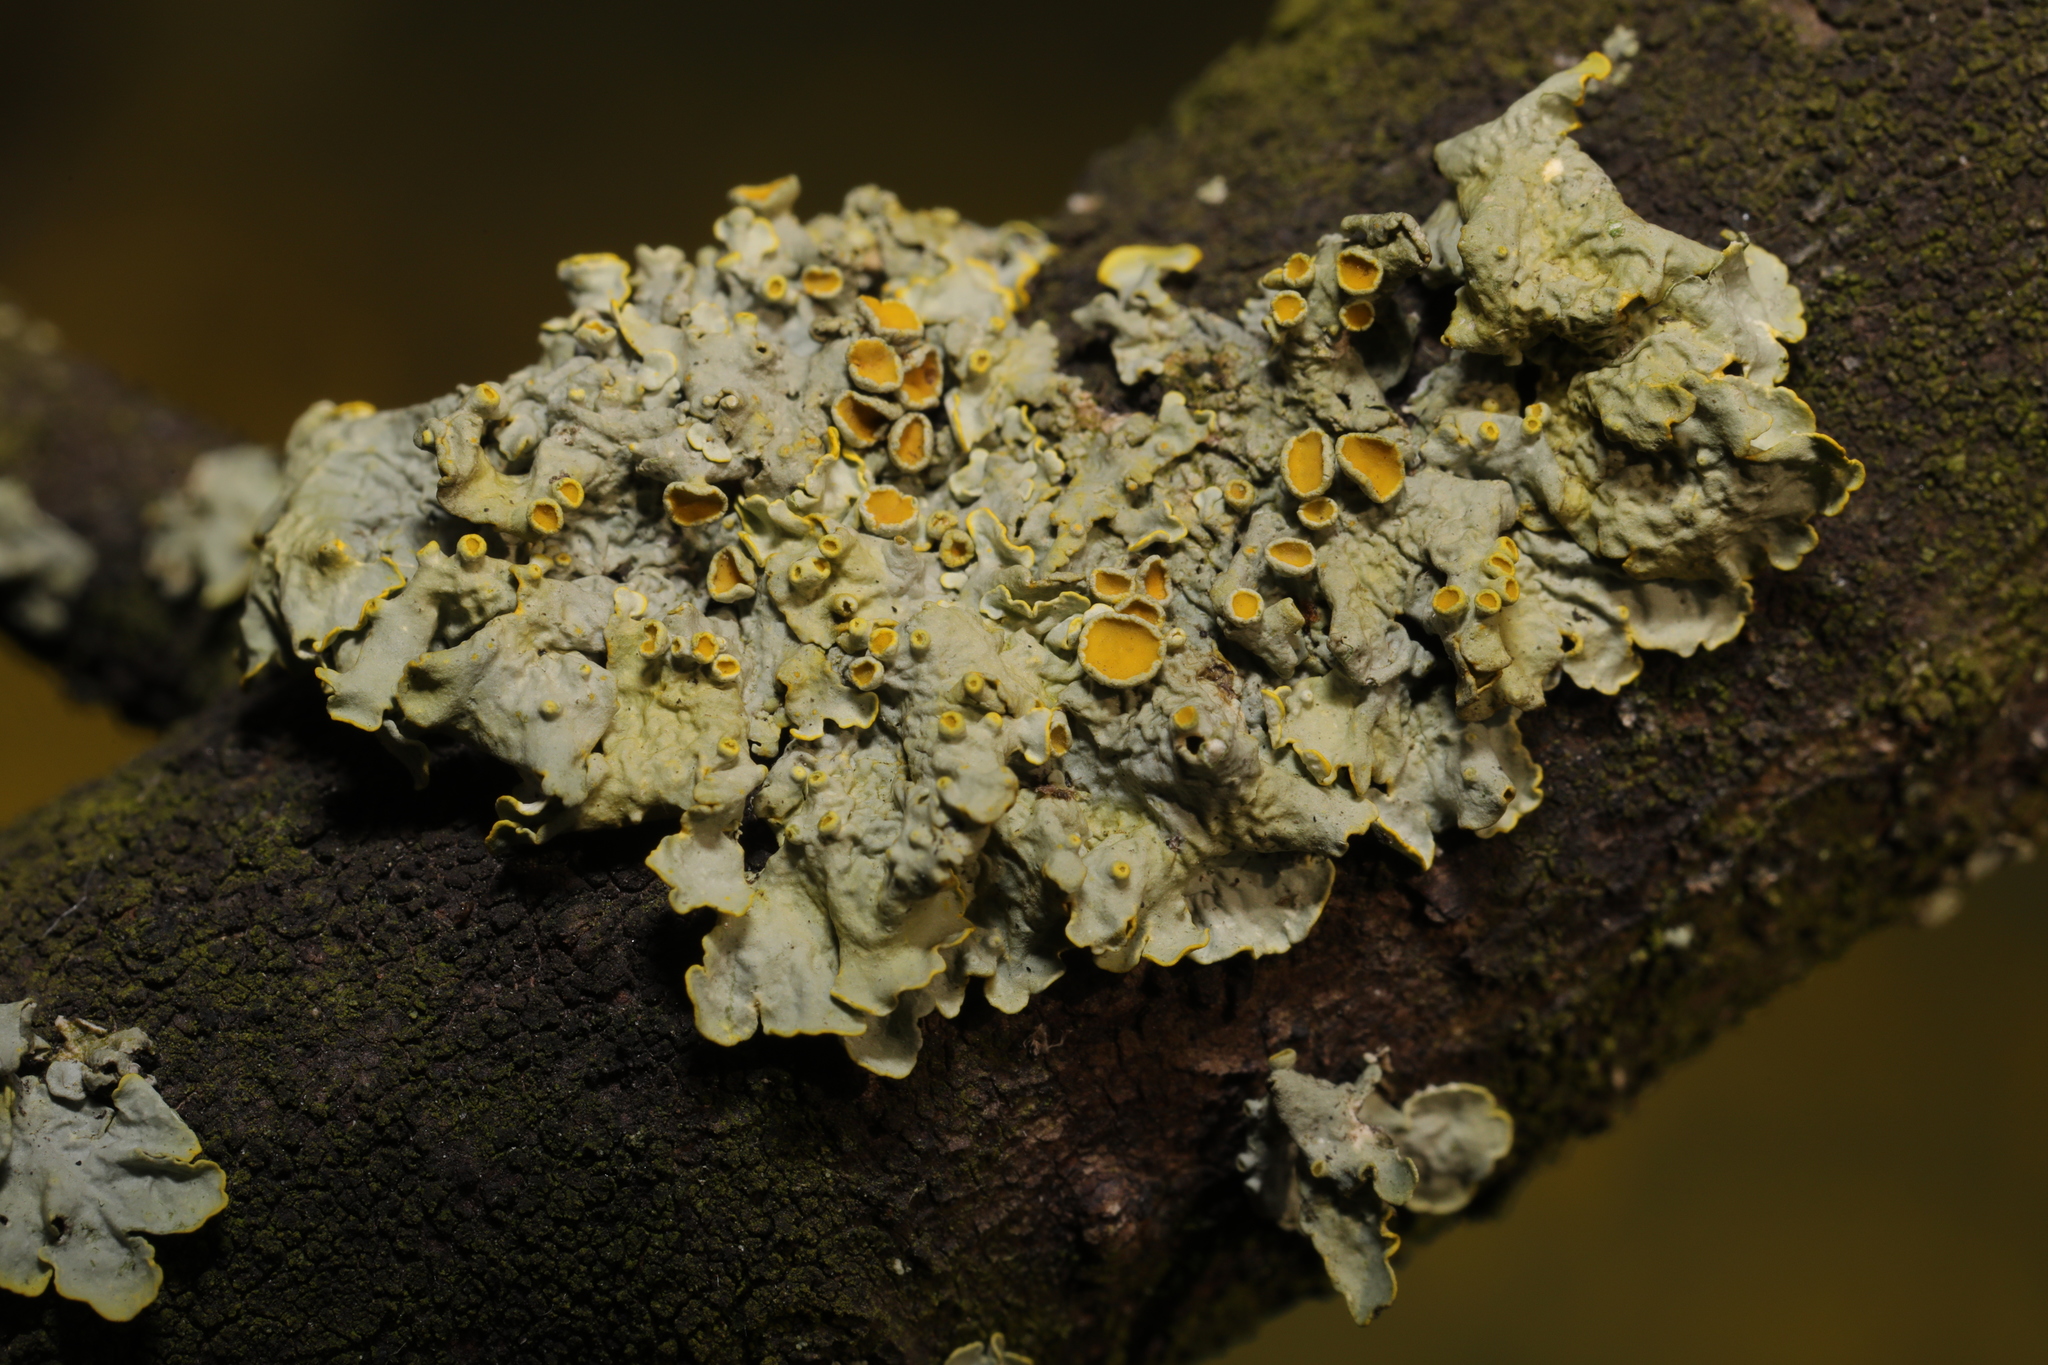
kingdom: Fungi
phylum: Ascomycota
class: Lecanoromycetes
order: Teloschistales
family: Teloschistaceae
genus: Xanthoria
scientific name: Xanthoria parietina
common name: Common orange lichen
